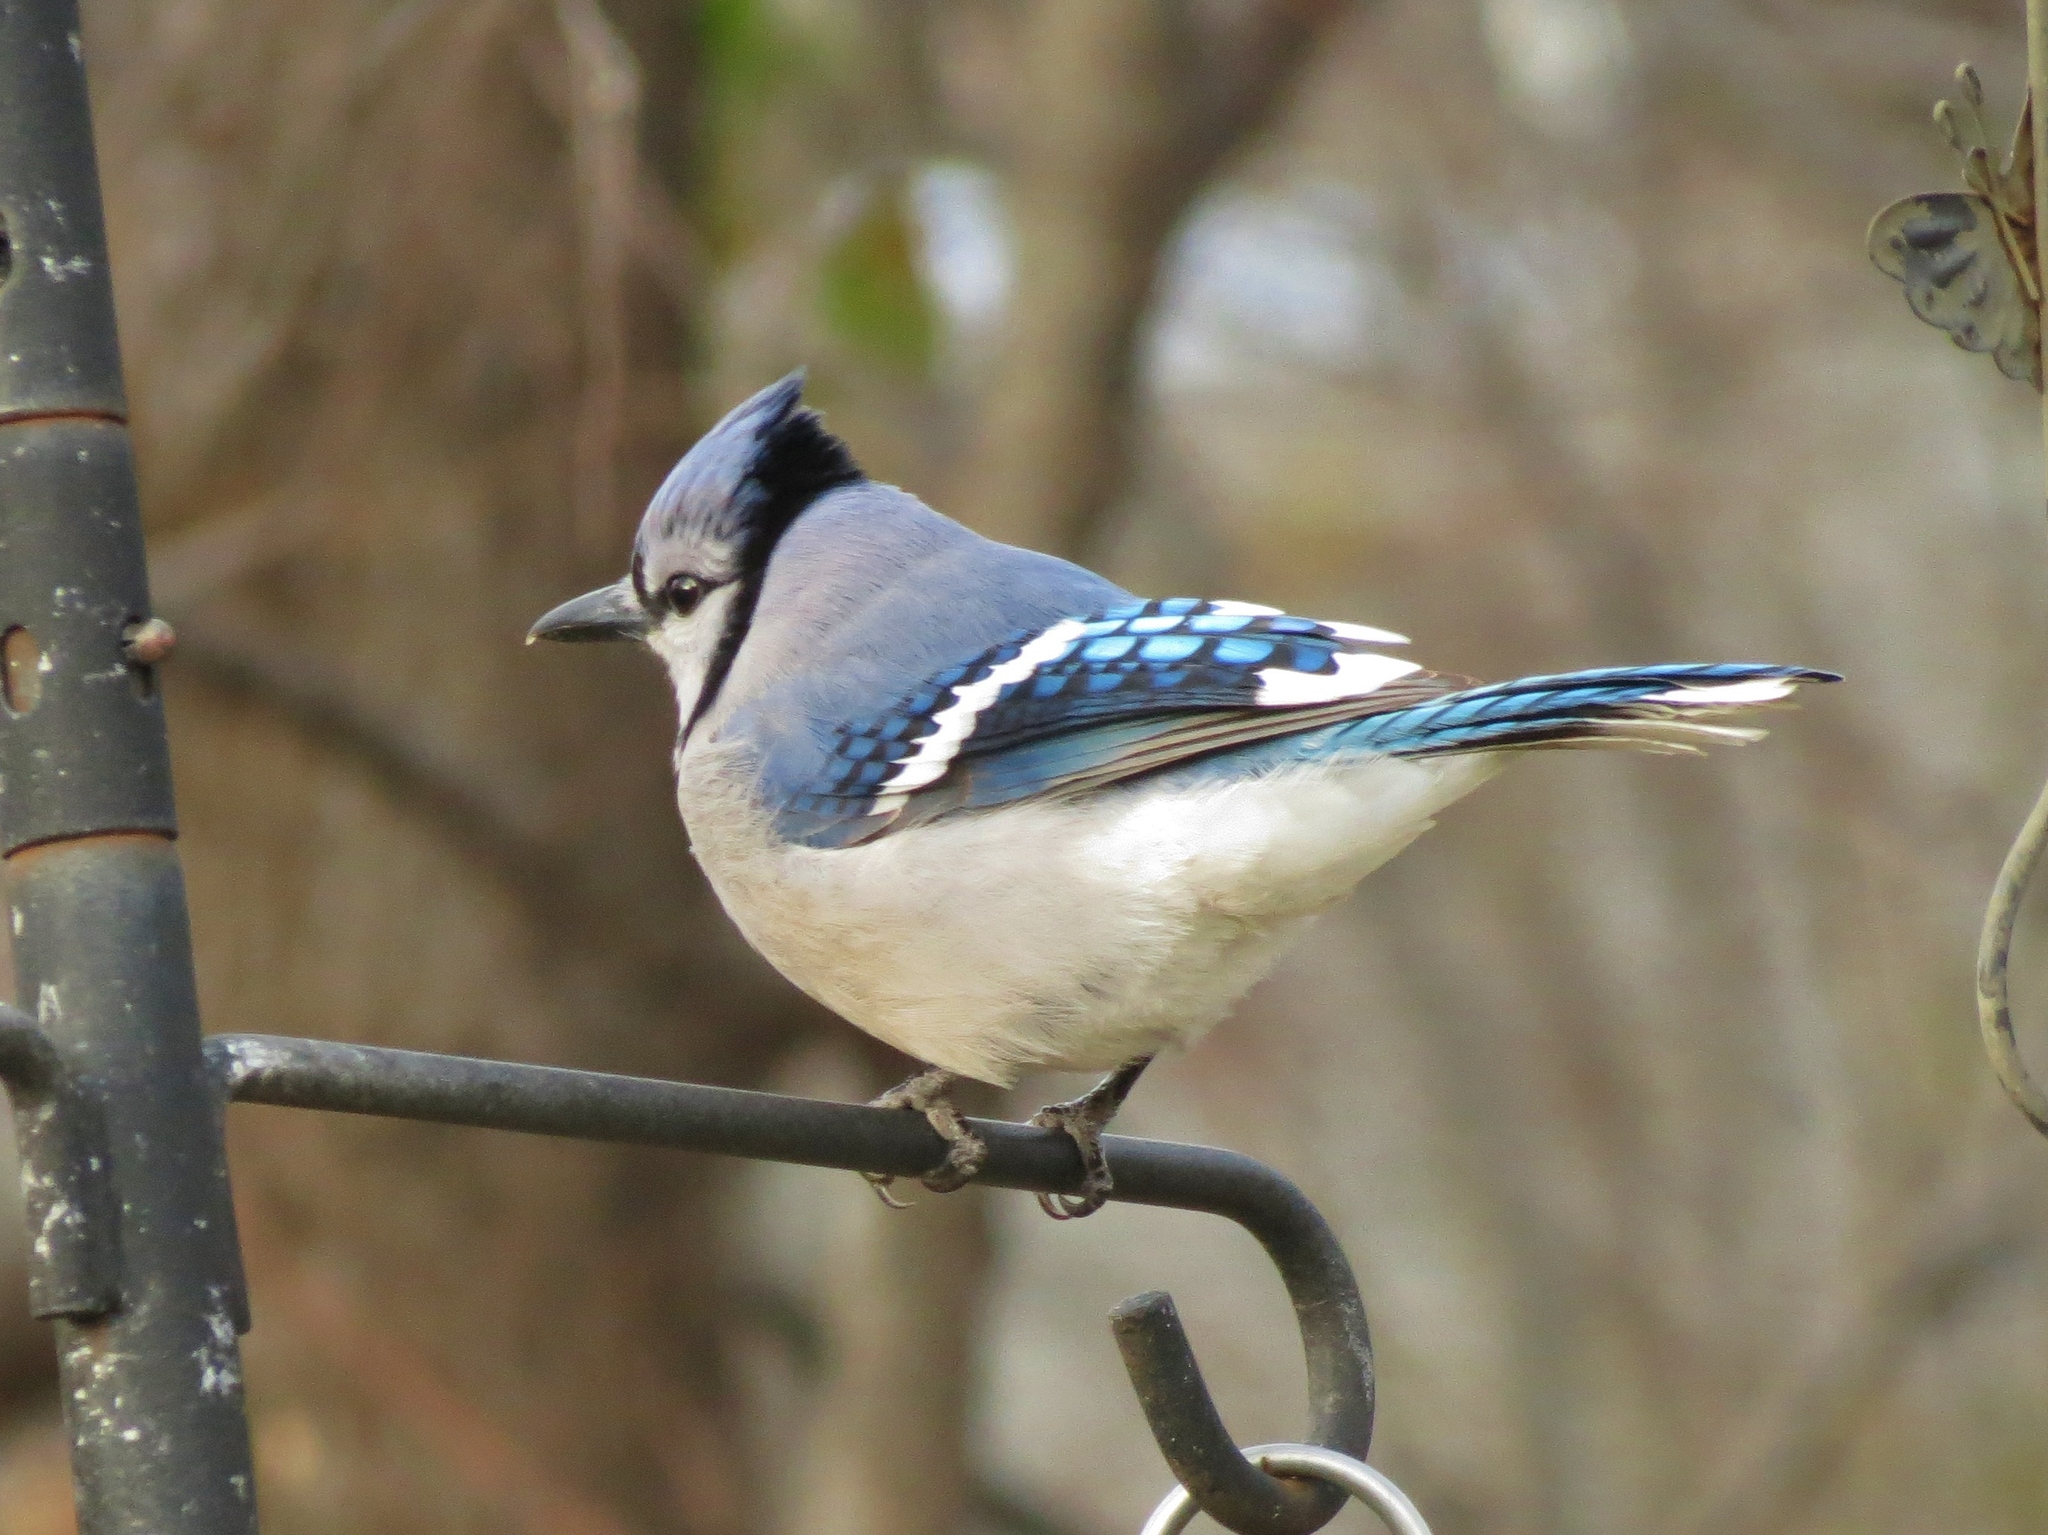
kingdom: Animalia
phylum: Chordata
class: Aves
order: Passeriformes
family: Corvidae
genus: Cyanocitta
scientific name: Cyanocitta cristata
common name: Blue jay
